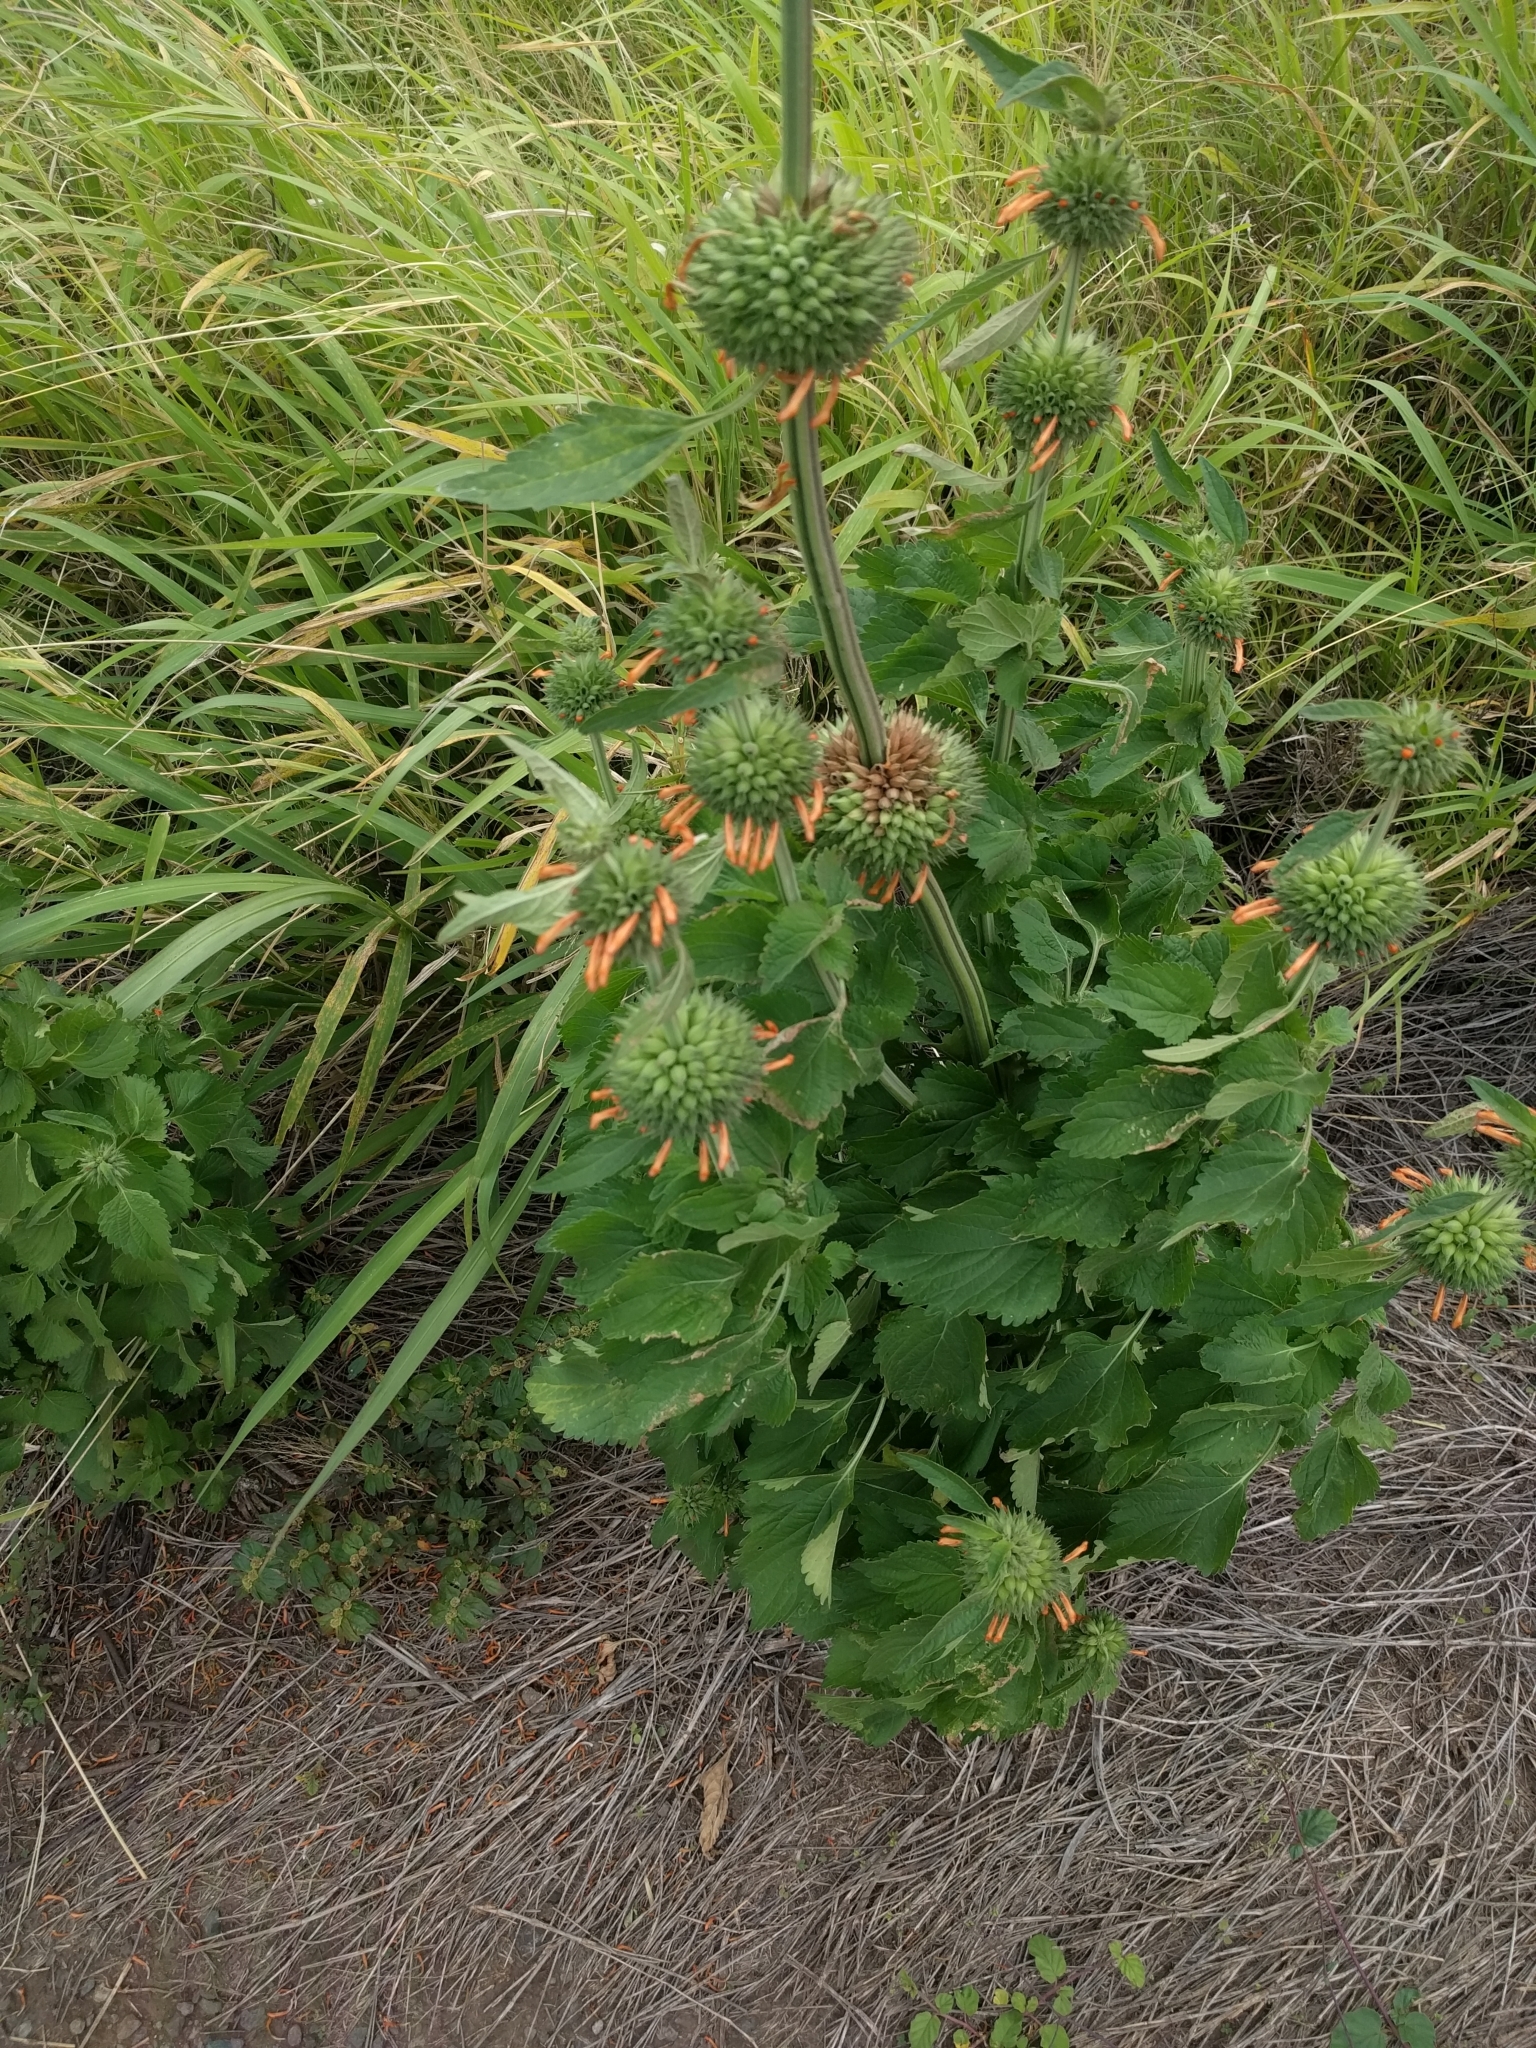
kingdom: Plantae
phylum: Tracheophyta
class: Magnoliopsida
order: Lamiales
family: Lamiaceae
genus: Leonotis
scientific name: Leonotis nepetifolia
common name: Christmas candlestick
